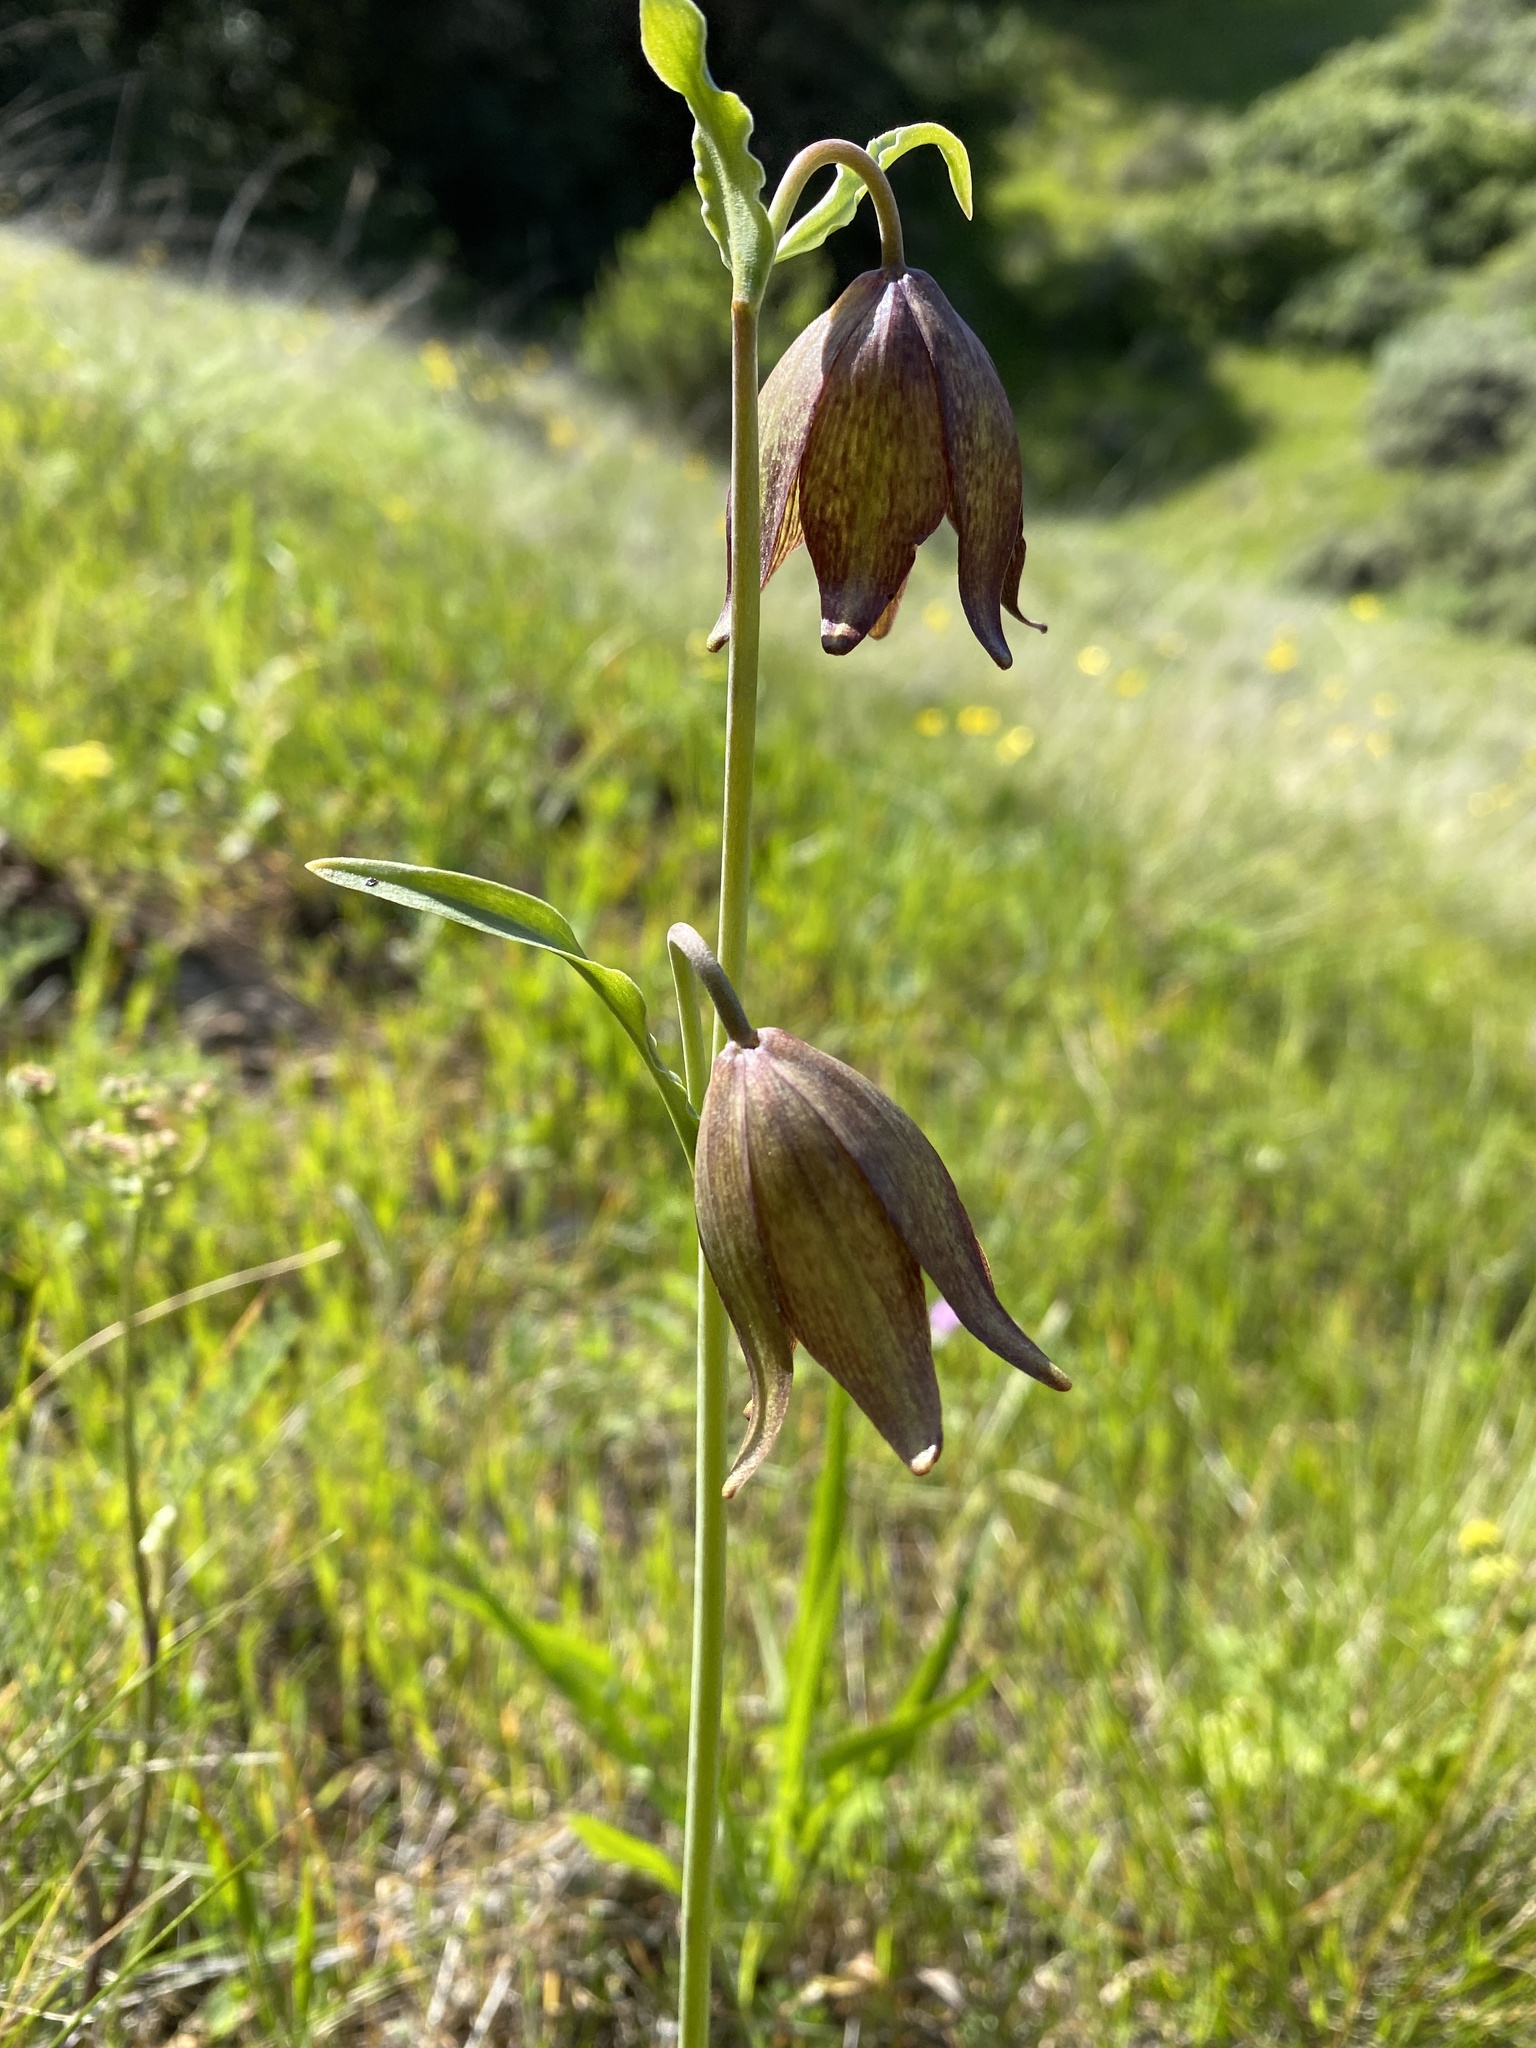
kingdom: Plantae
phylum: Tracheophyta
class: Liliopsida
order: Liliales
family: Liliaceae
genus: Fritillaria
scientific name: Fritillaria biflora
